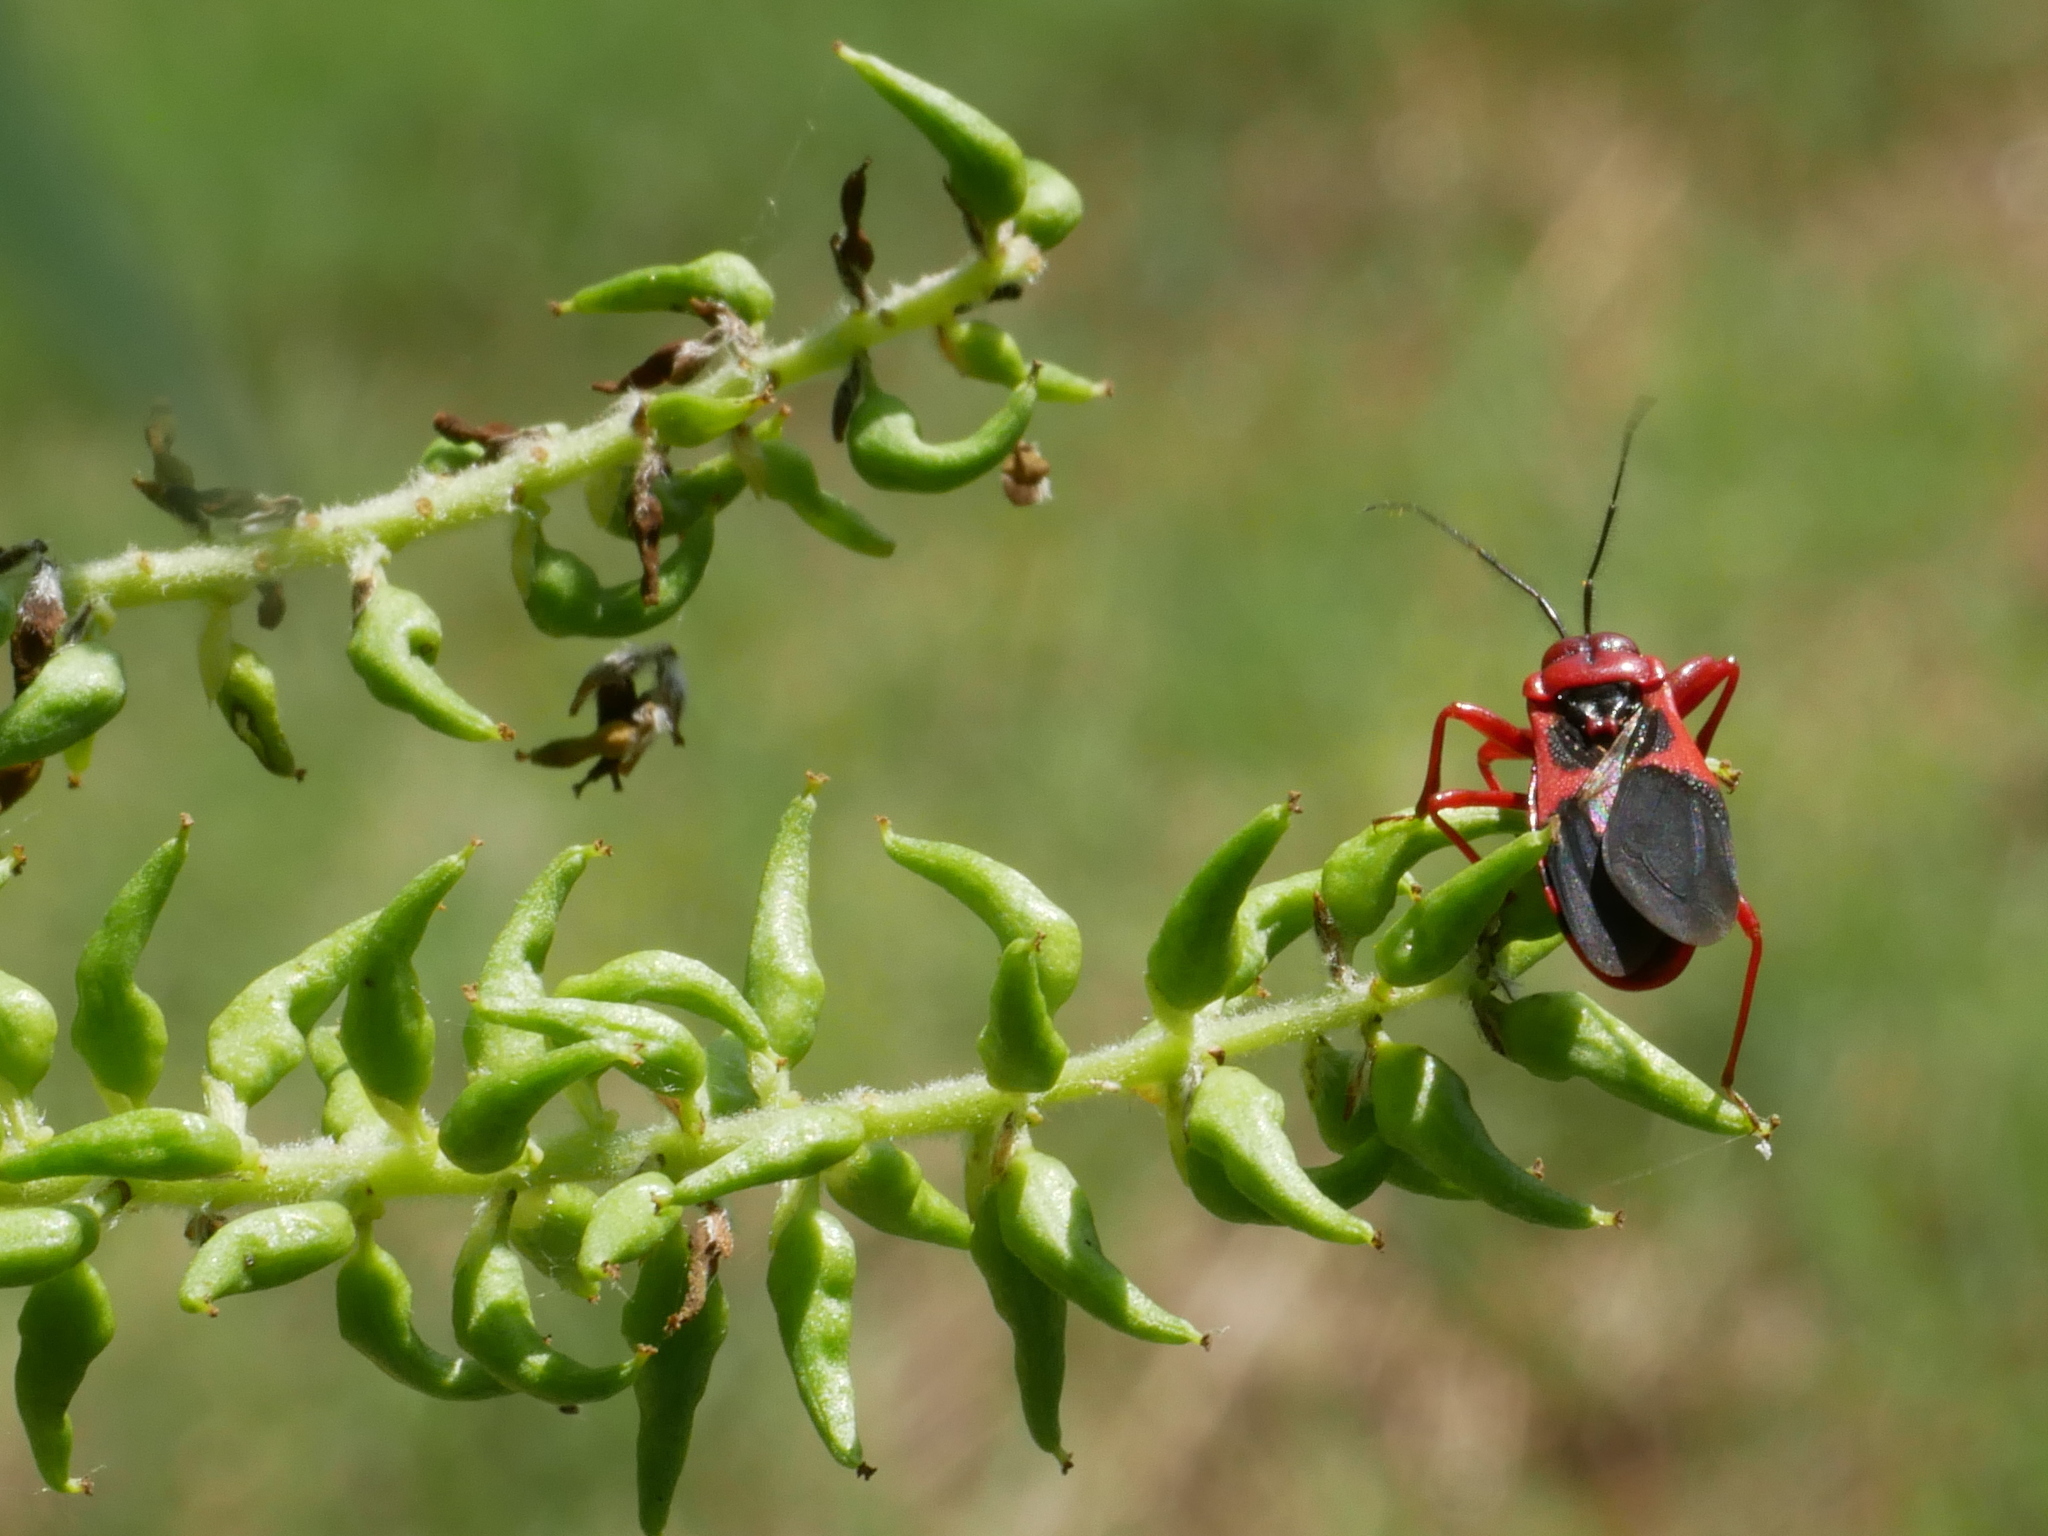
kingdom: Animalia
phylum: Arthropoda
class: Insecta
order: Hemiptera
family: Reduviidae
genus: Haematoloecha
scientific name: Haematoloecha nigrorufa
